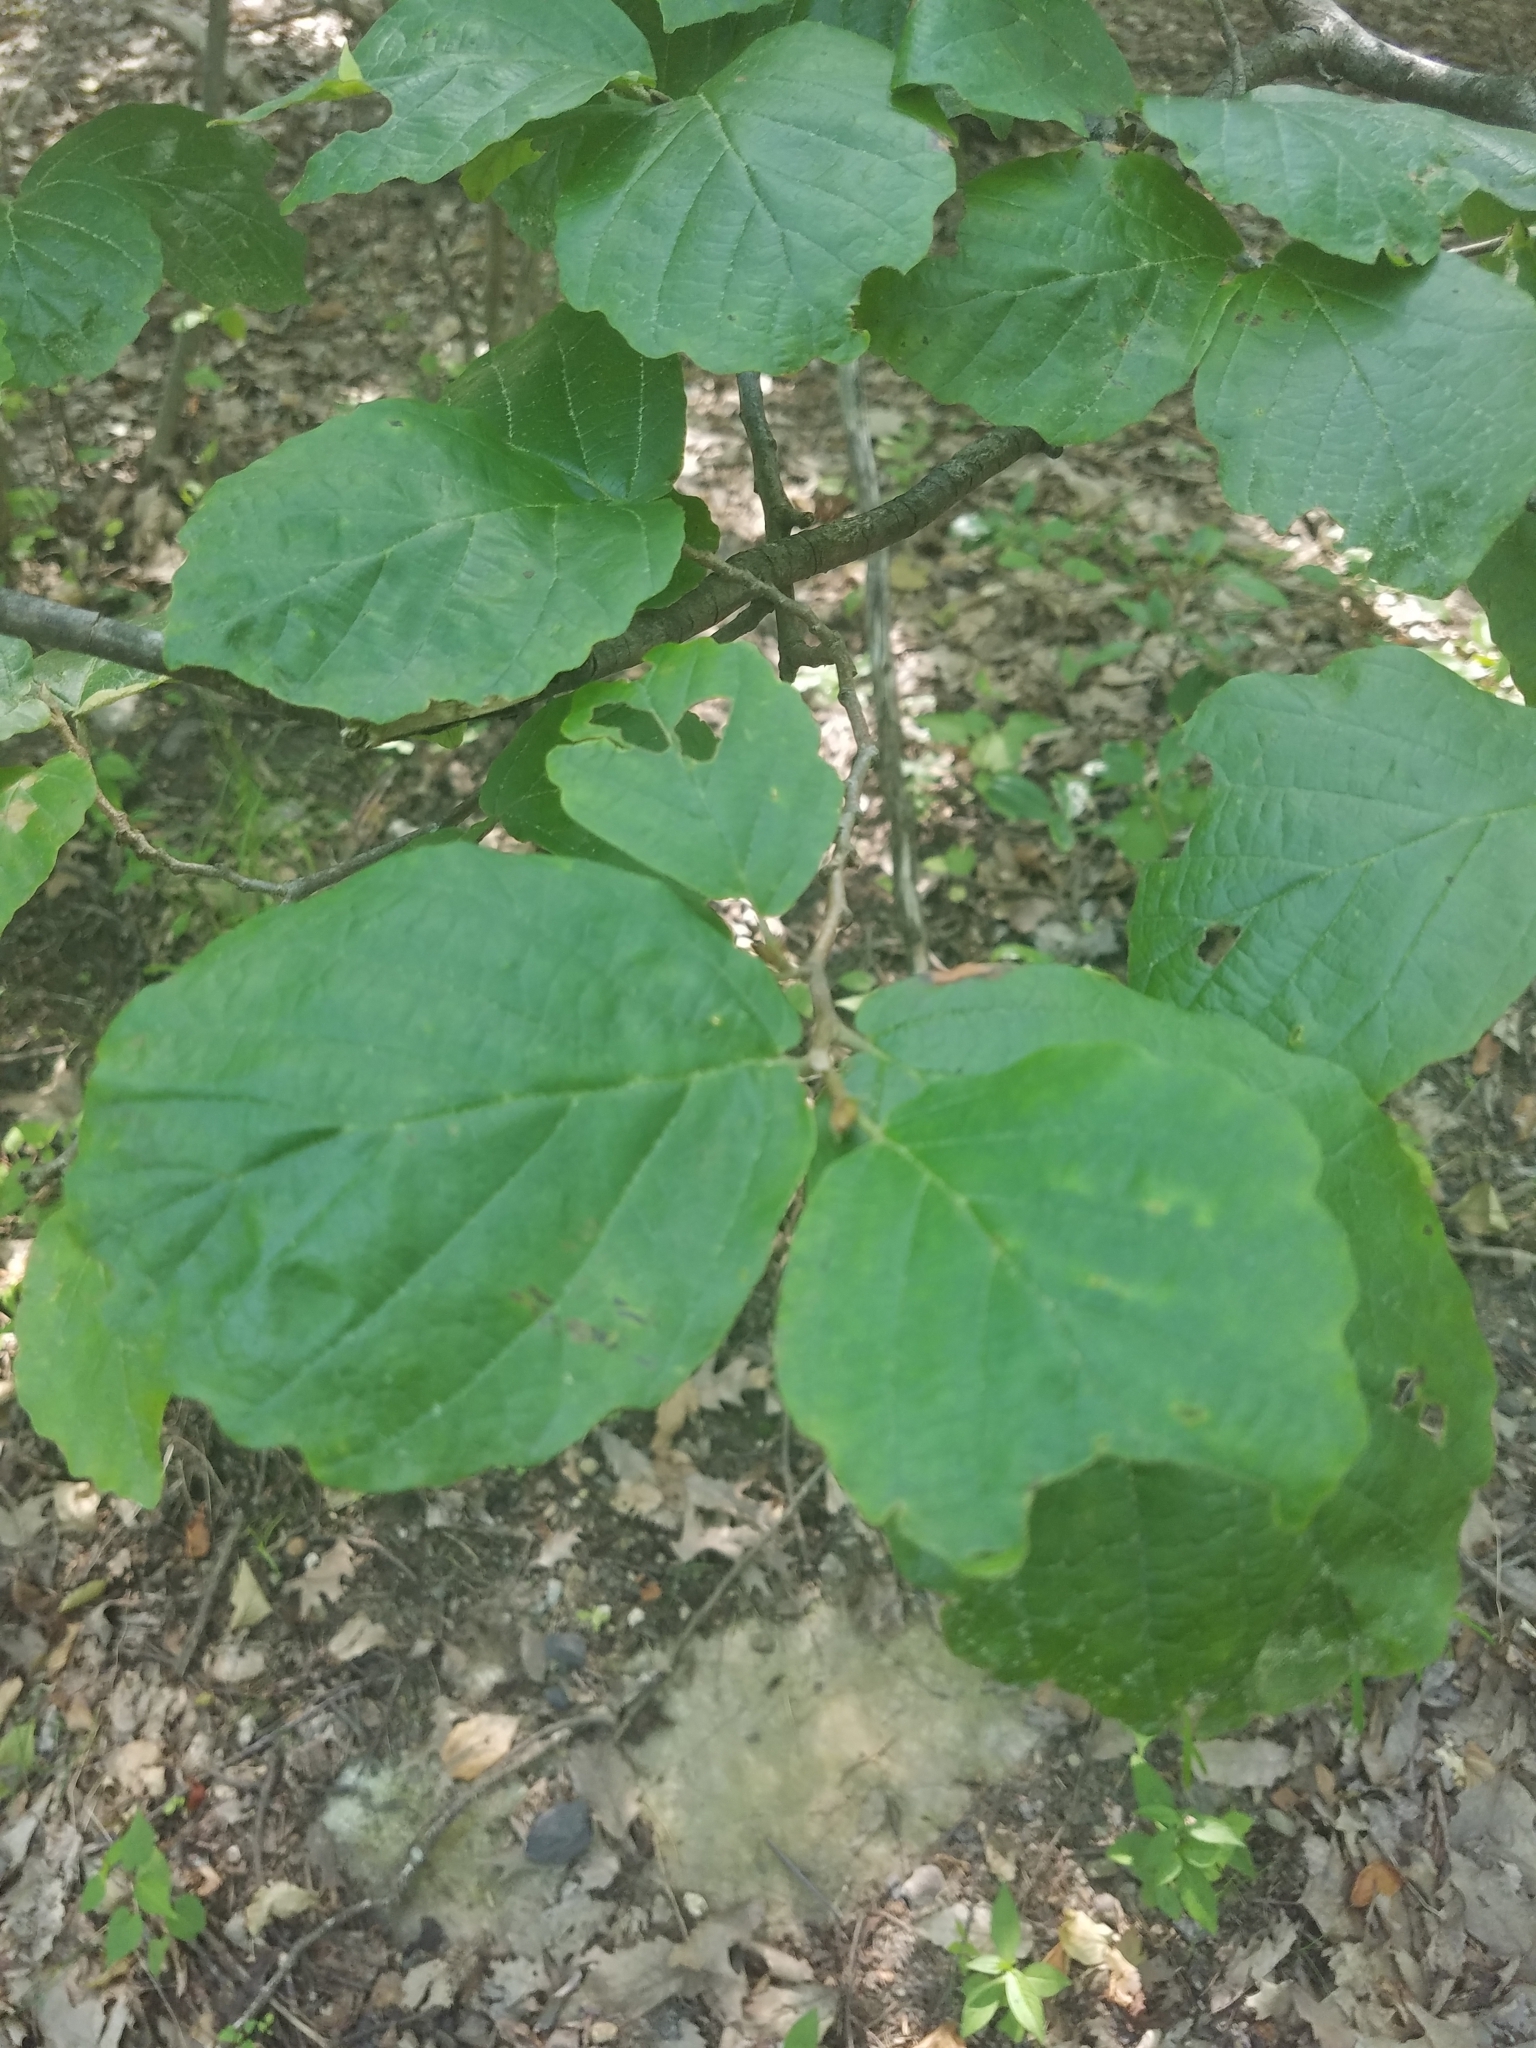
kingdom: Plantae
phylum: Tracheophyta
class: Magnoliopsida
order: Saxifragales
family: Hamamelidaceae
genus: Hamamelis
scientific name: Hamamelis virginiana
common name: Witch-hazel
